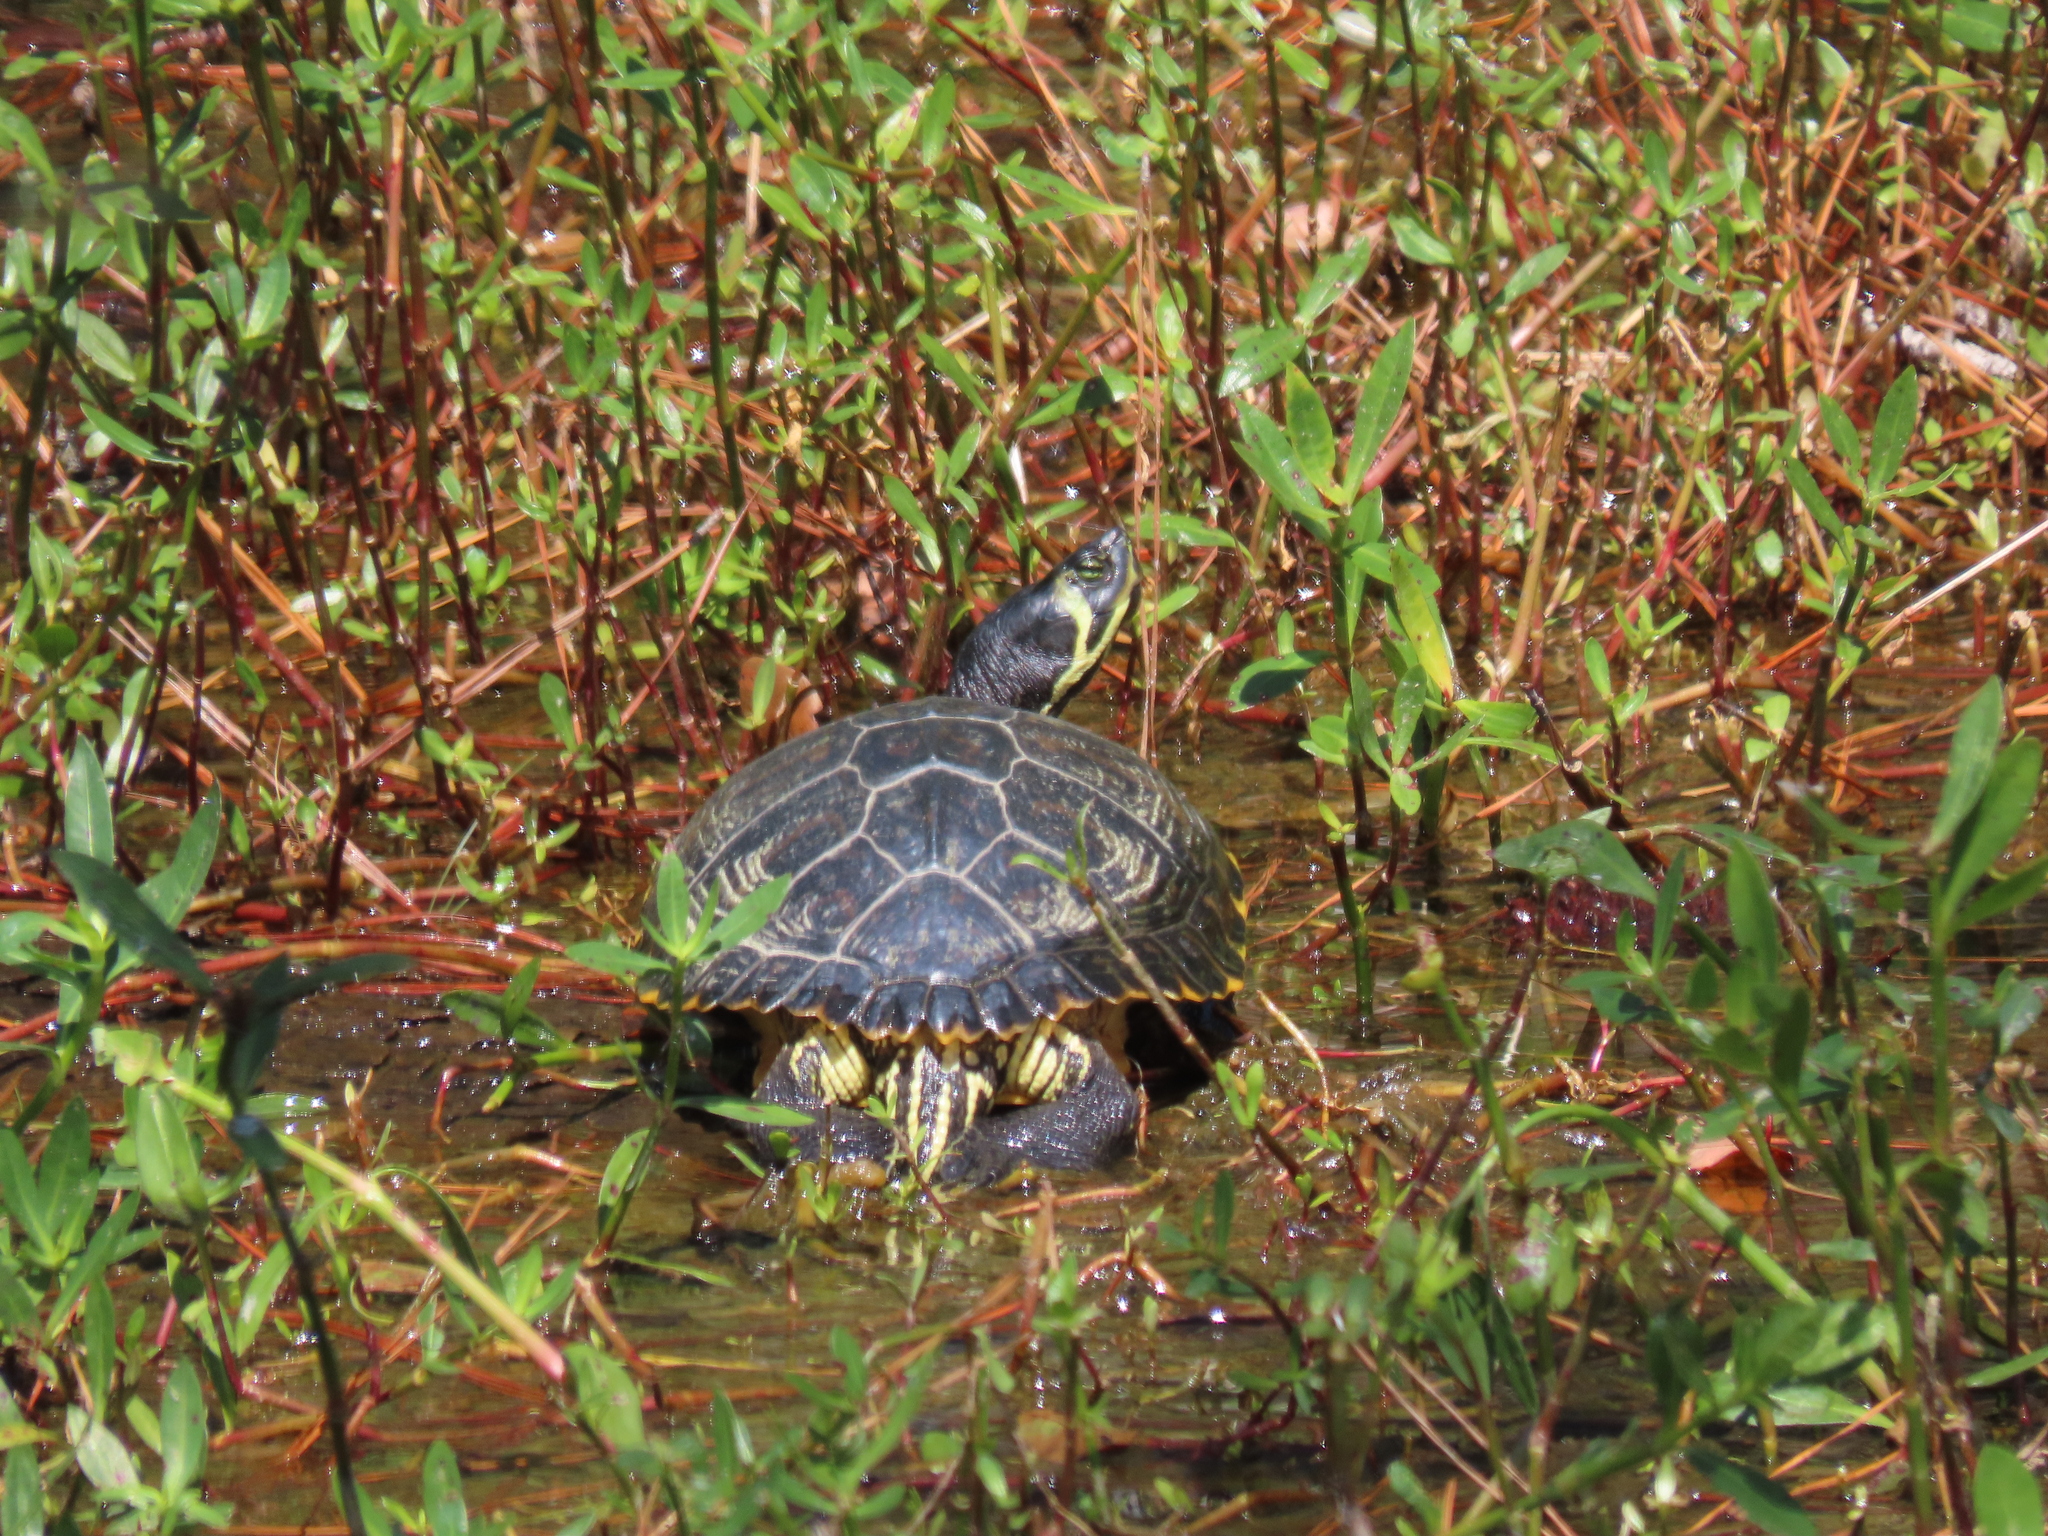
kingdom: Animalia
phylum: Chordata
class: Testudines
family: Emydidae
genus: Trachemys
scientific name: Trachemys scripta
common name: Slider
